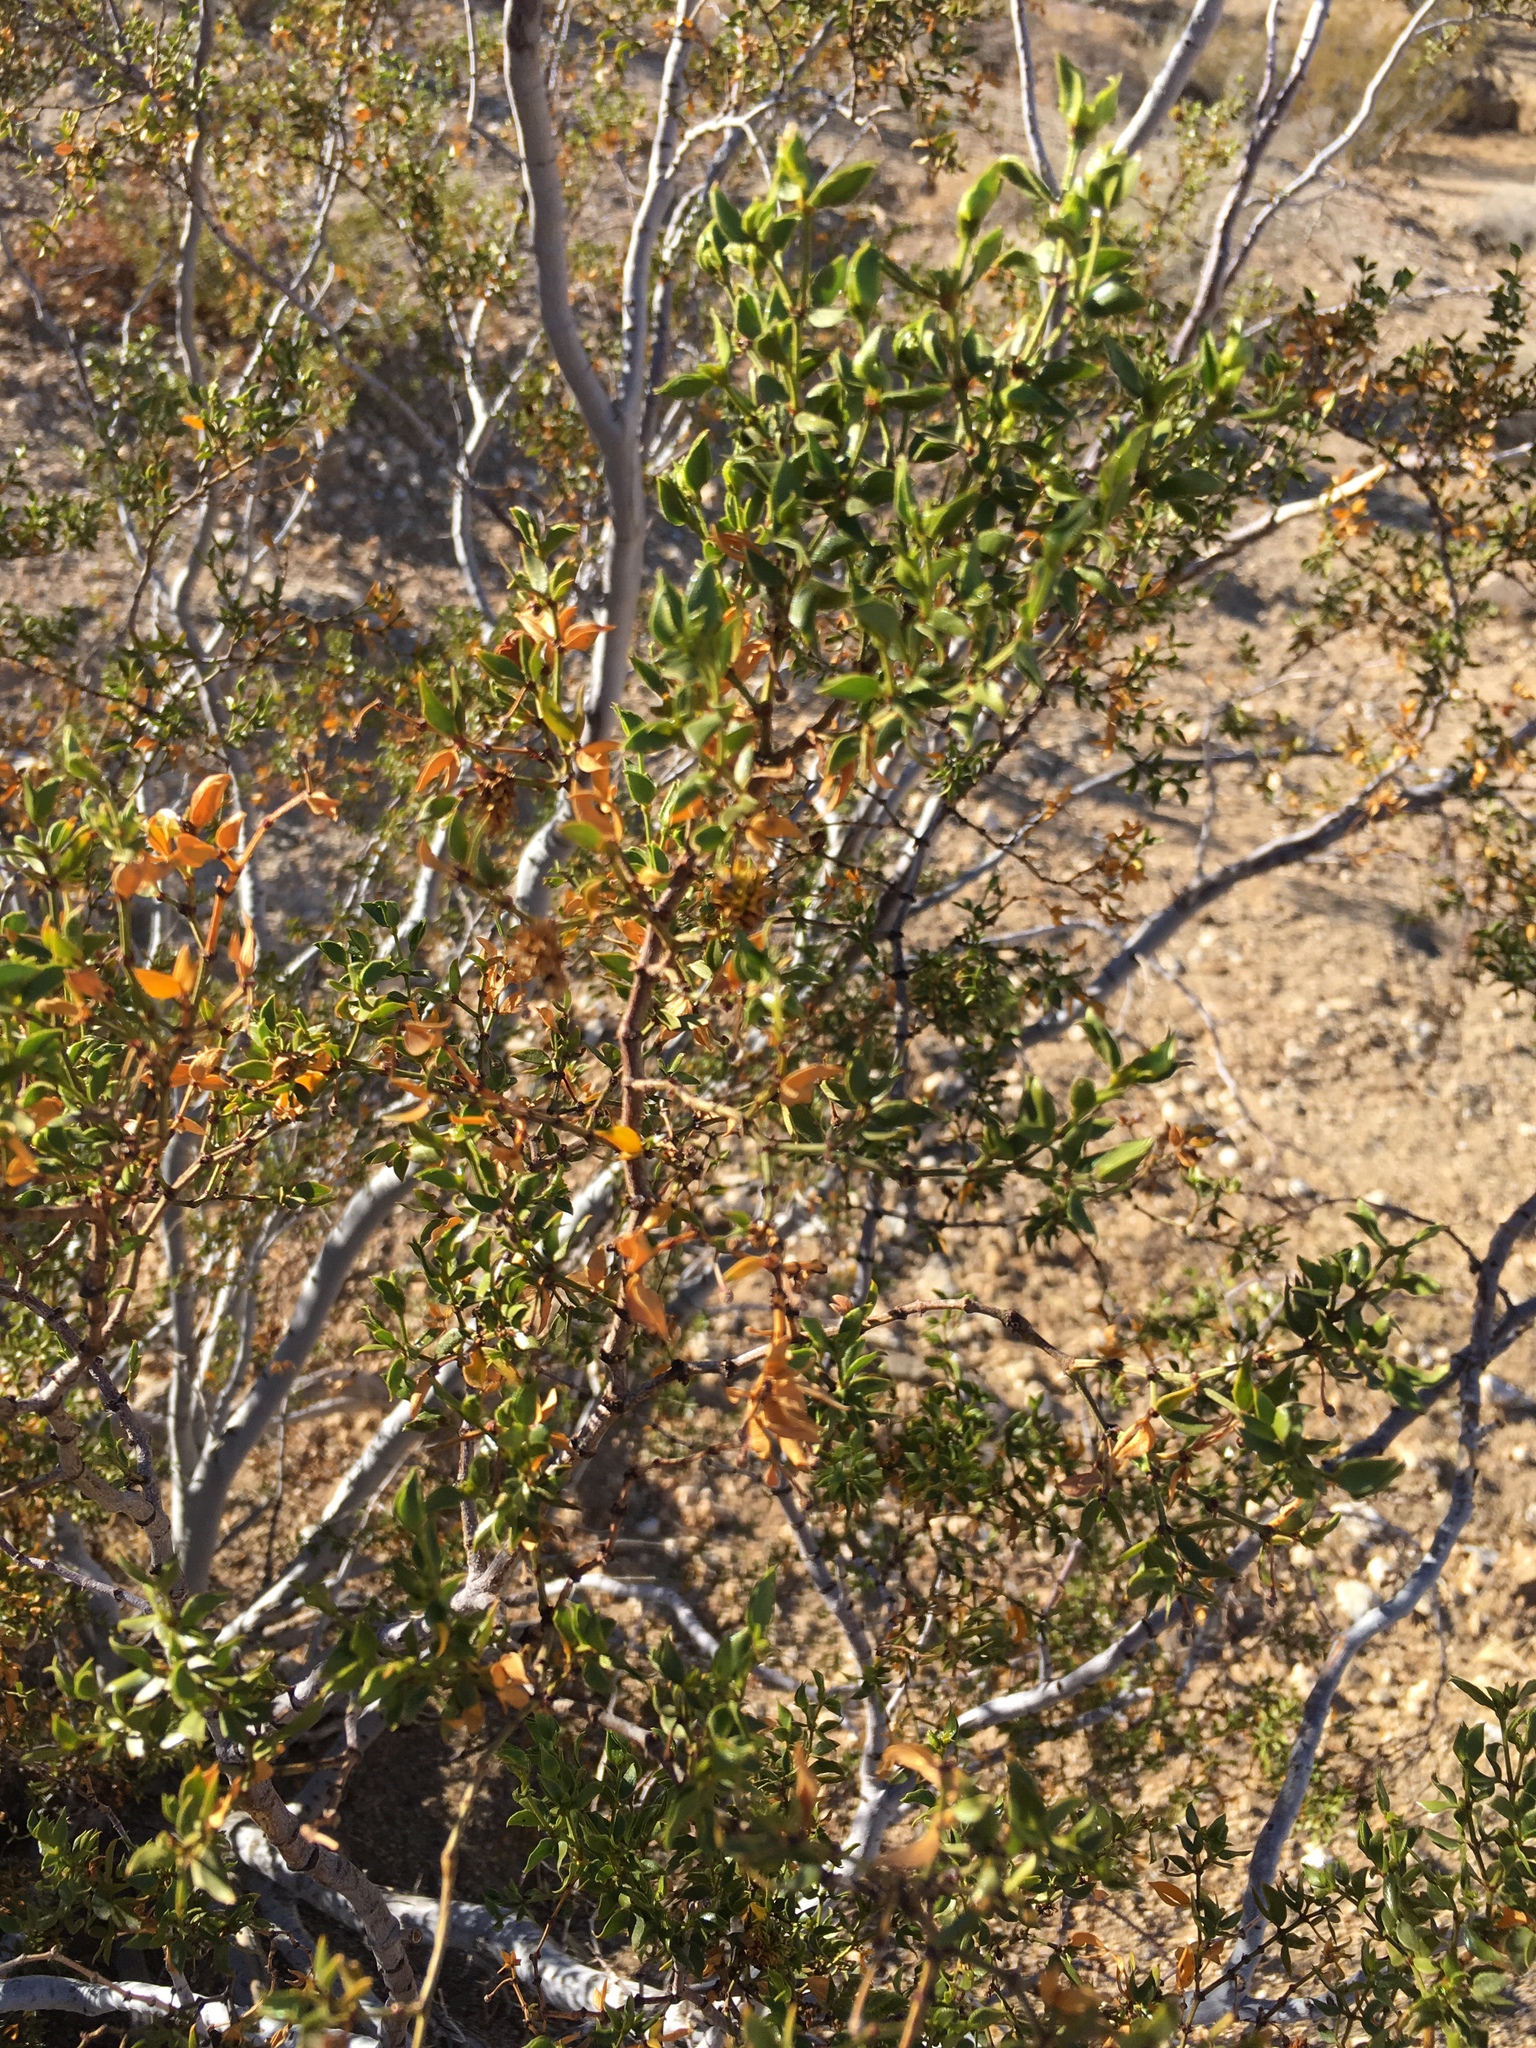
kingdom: Plantae
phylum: Tracheophyta
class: Magnoliopsida
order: Zygophyllales
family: Zygophyllaceae
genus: Larrea
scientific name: Larrea tridentata
